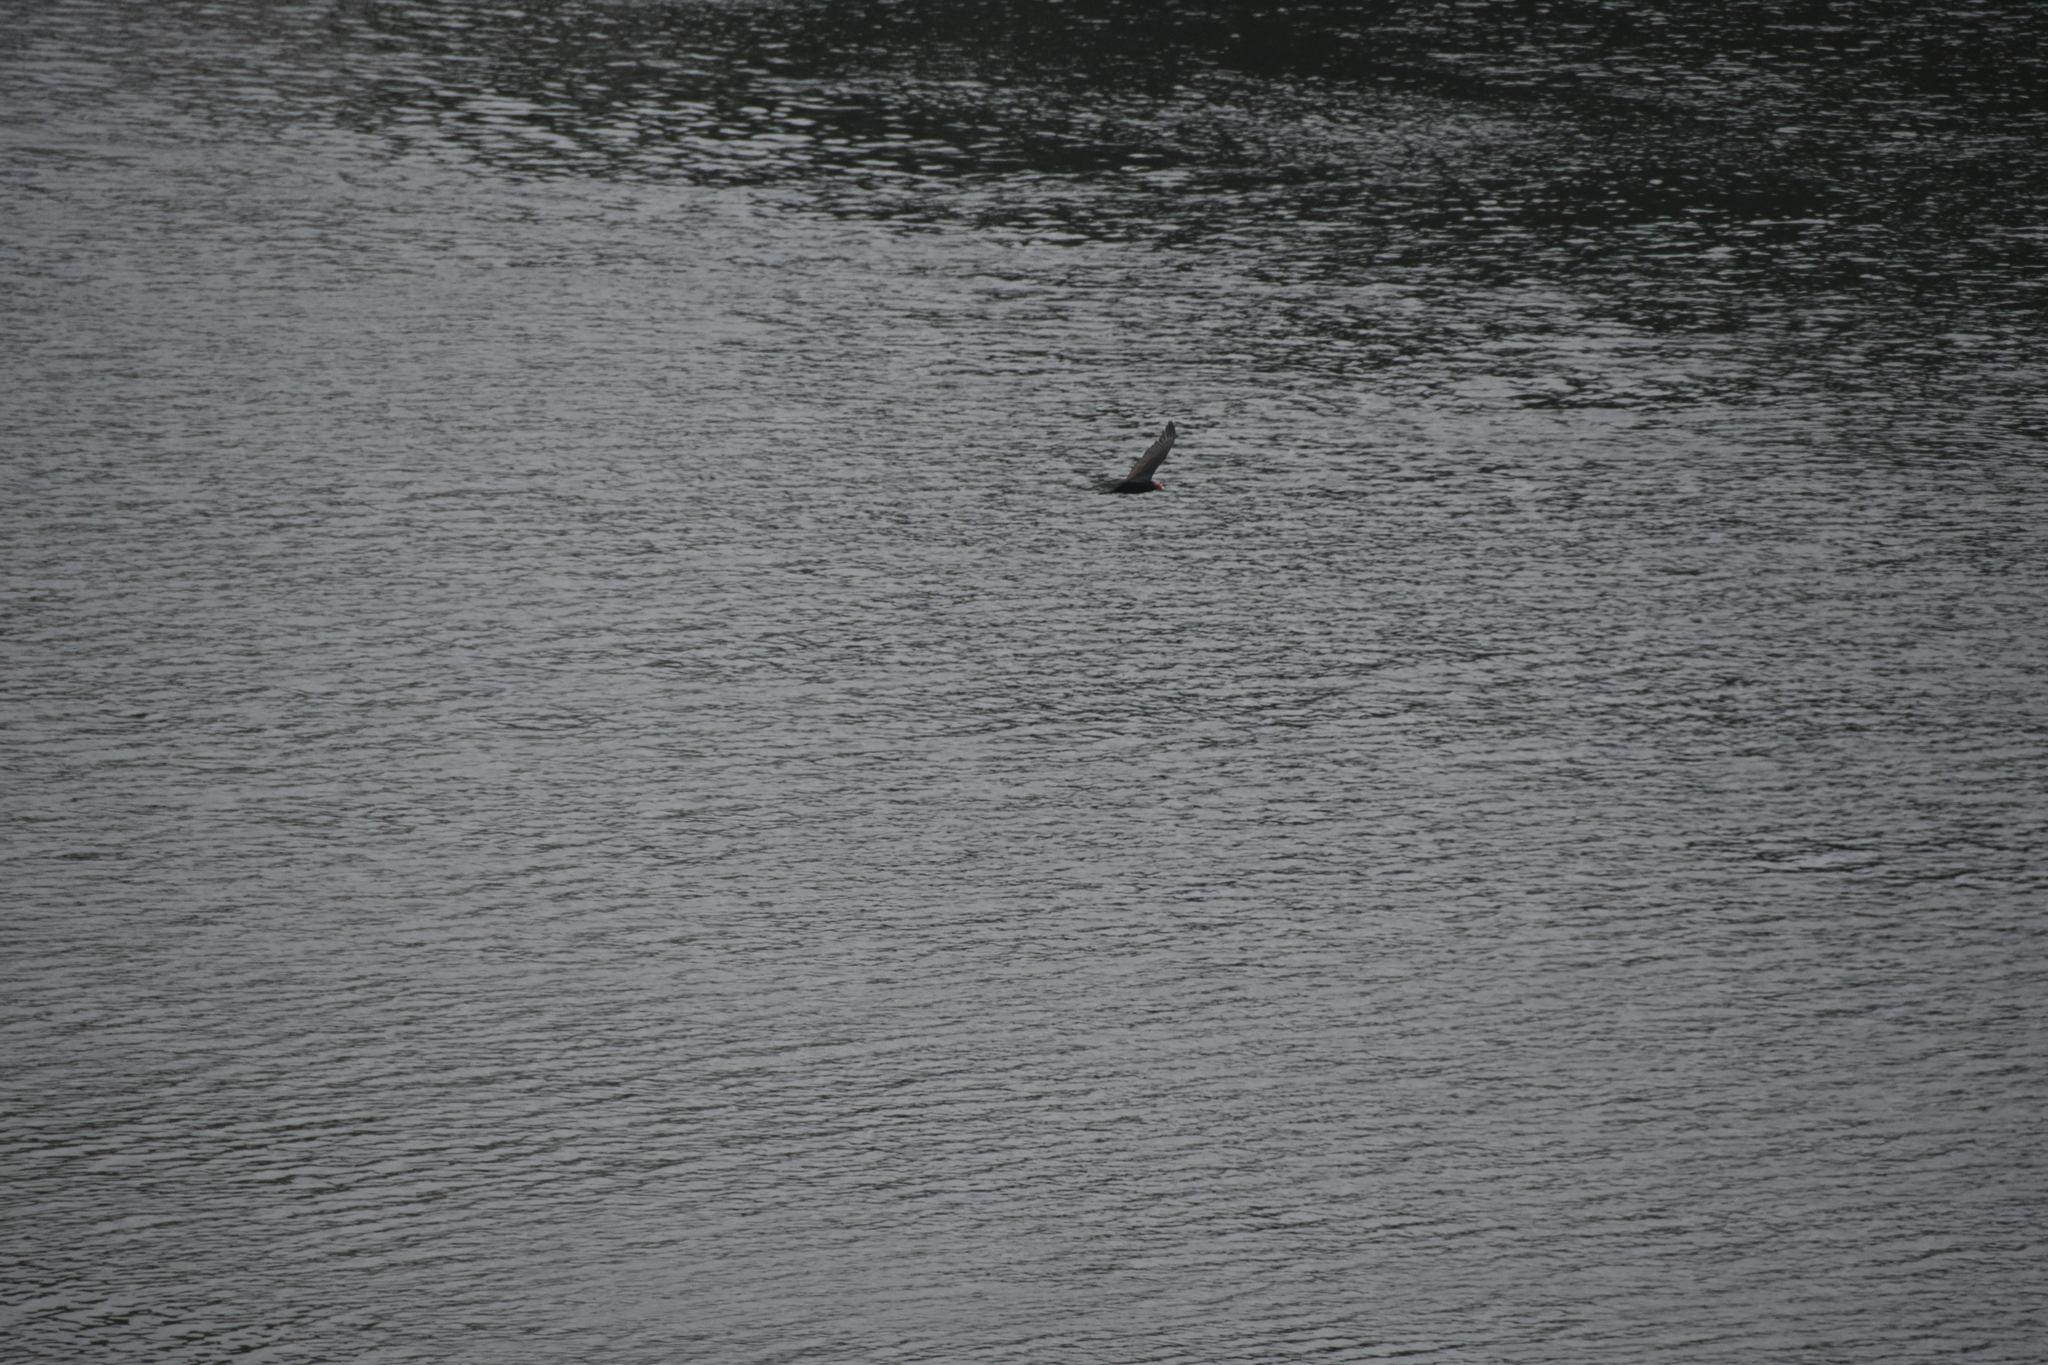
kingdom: Animalia
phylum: Chordata
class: Aves
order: Accipitriformes
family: Cathartidae
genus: Cathartes
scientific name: Cathartes aura
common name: Turkey vulture
